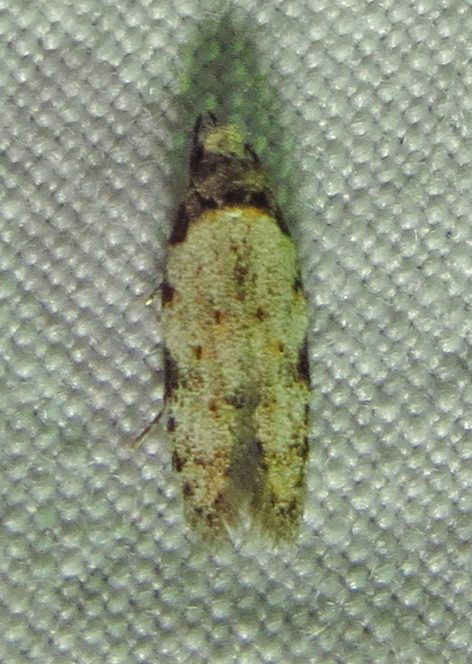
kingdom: Animalia
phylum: Arthropoda
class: Insecta
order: Lepidoptera
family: Autostichidae
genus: Taygete
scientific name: Taygete attributella
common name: Triangle-marked twirler moth
